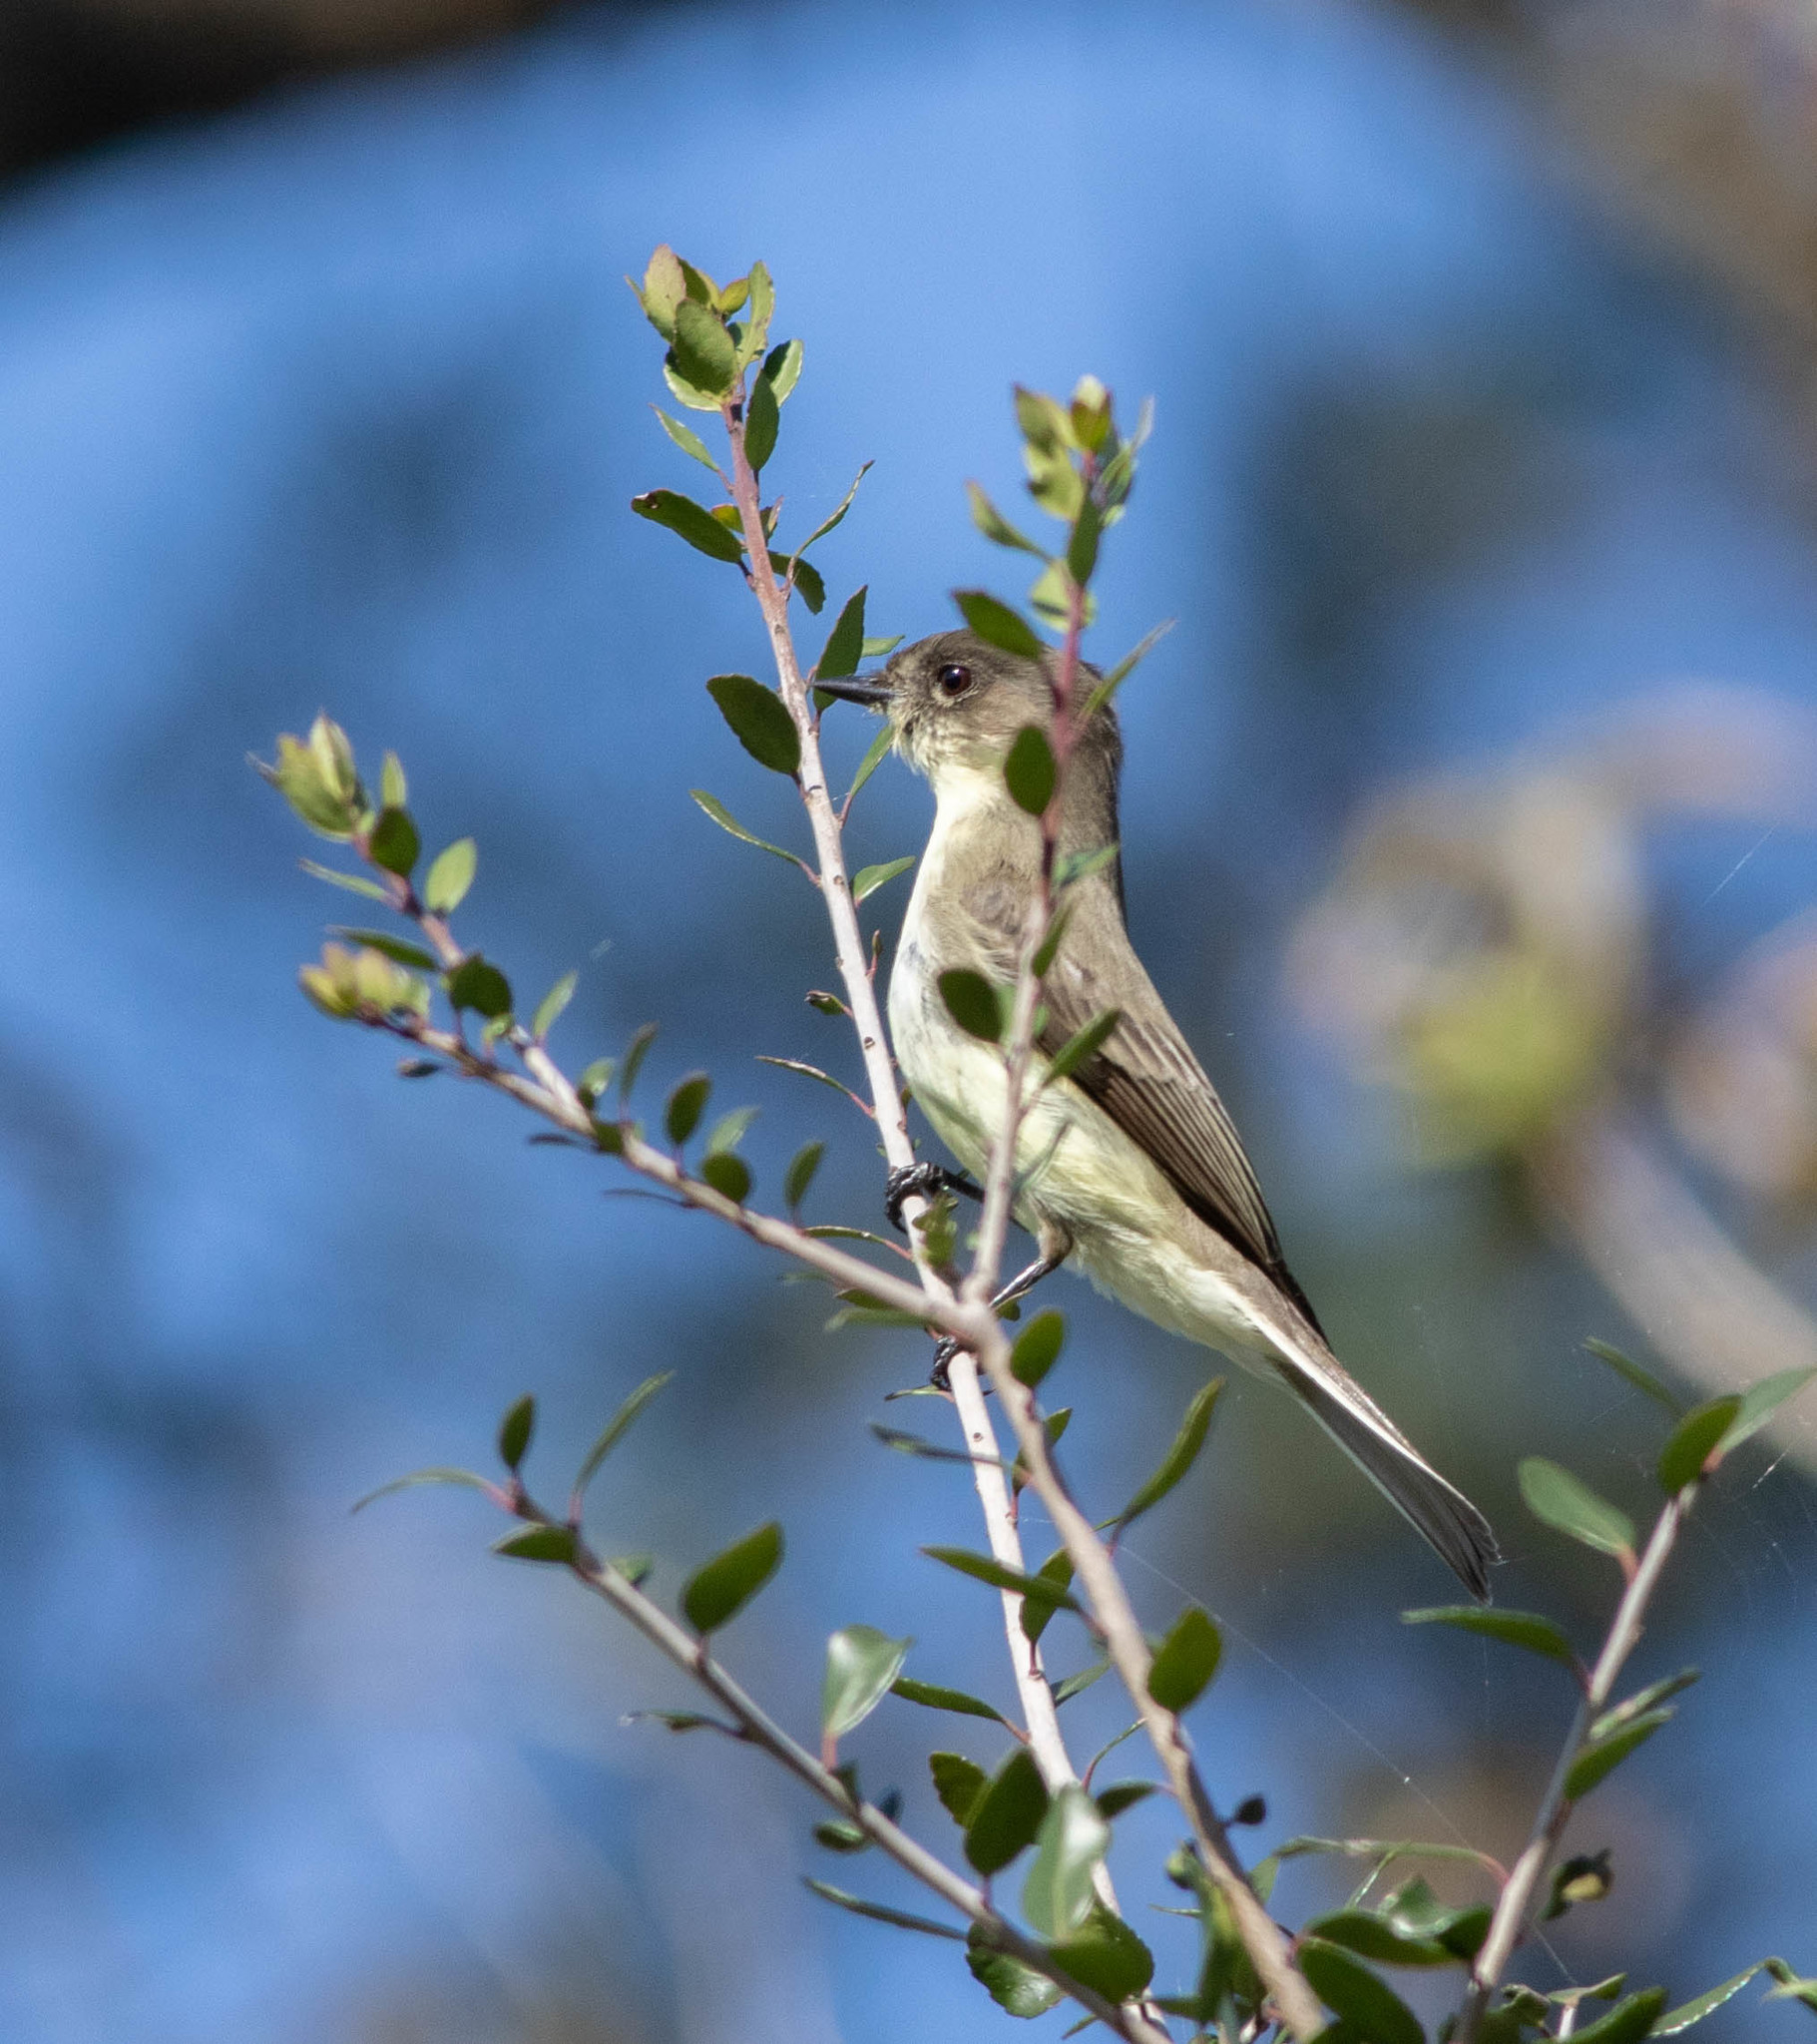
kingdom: Animalia
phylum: Chordata
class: Aves
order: Passeriformes
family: Tyrannidae
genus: Sayornis
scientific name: Sayornis phoebe
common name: Eastern phoebe
